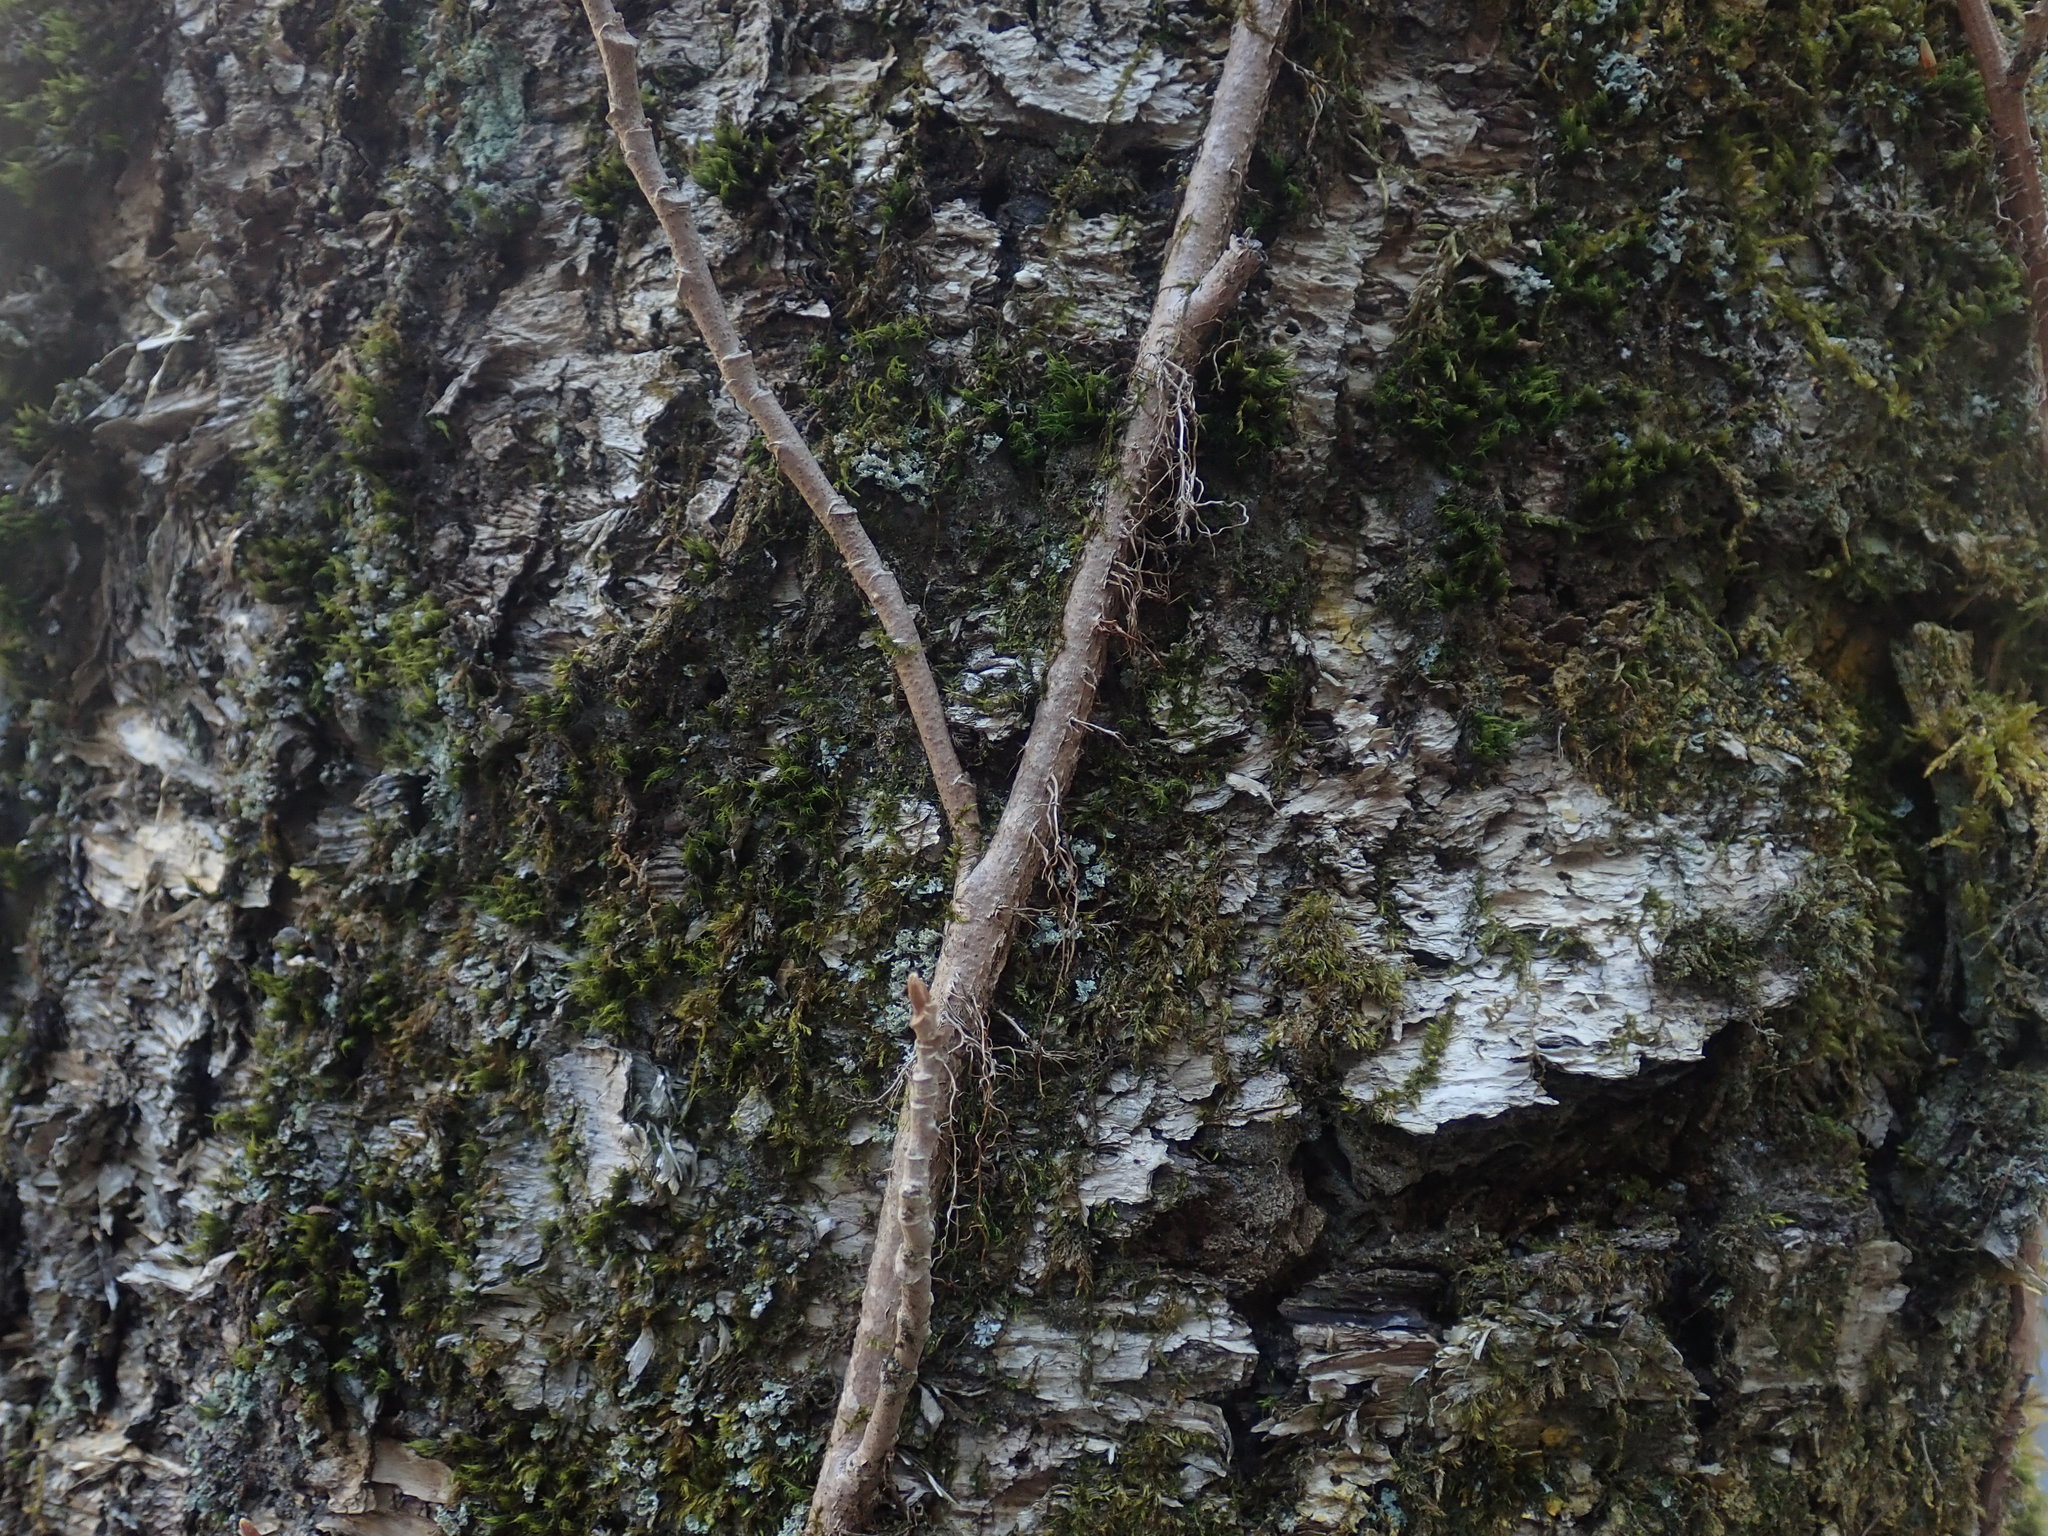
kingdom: Plantae
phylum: Tracheophyta
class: Magnoliopsida
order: Sapindales
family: Anacardiaceae
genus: Toxicodendron
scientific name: Toxicodendron radicans
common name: Poison ivy
